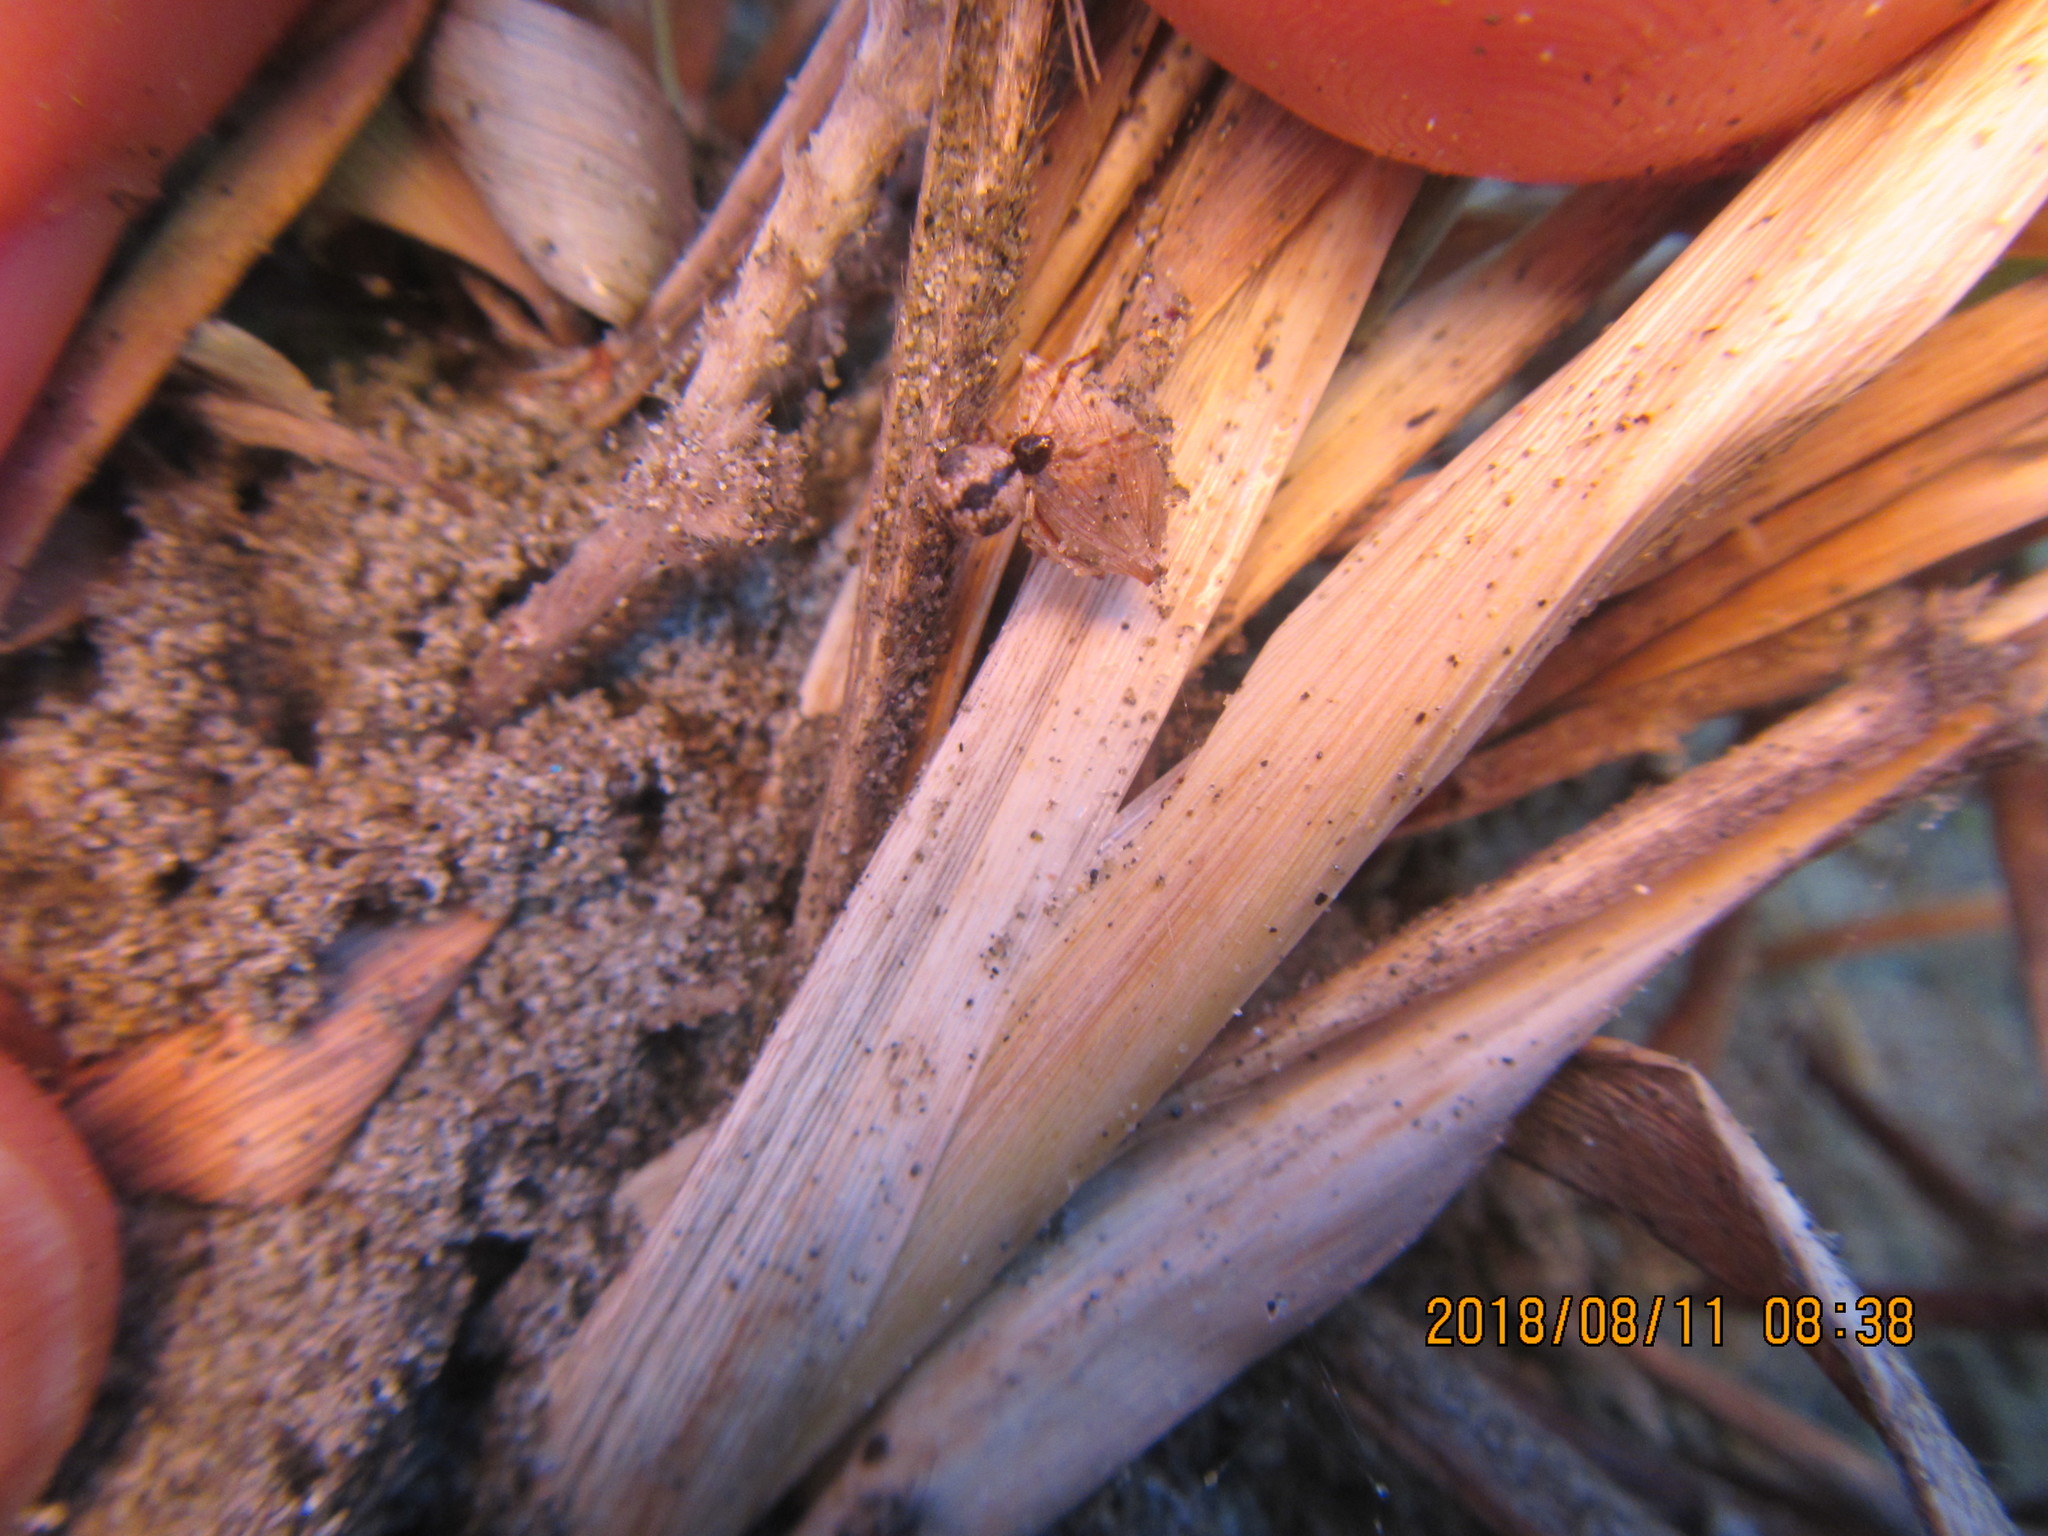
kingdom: Animalia
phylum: Arthropoda
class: Arachnida
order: Araneae
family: Theridiidae
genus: Cryptachaea
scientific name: Cryptachaea veruculata
